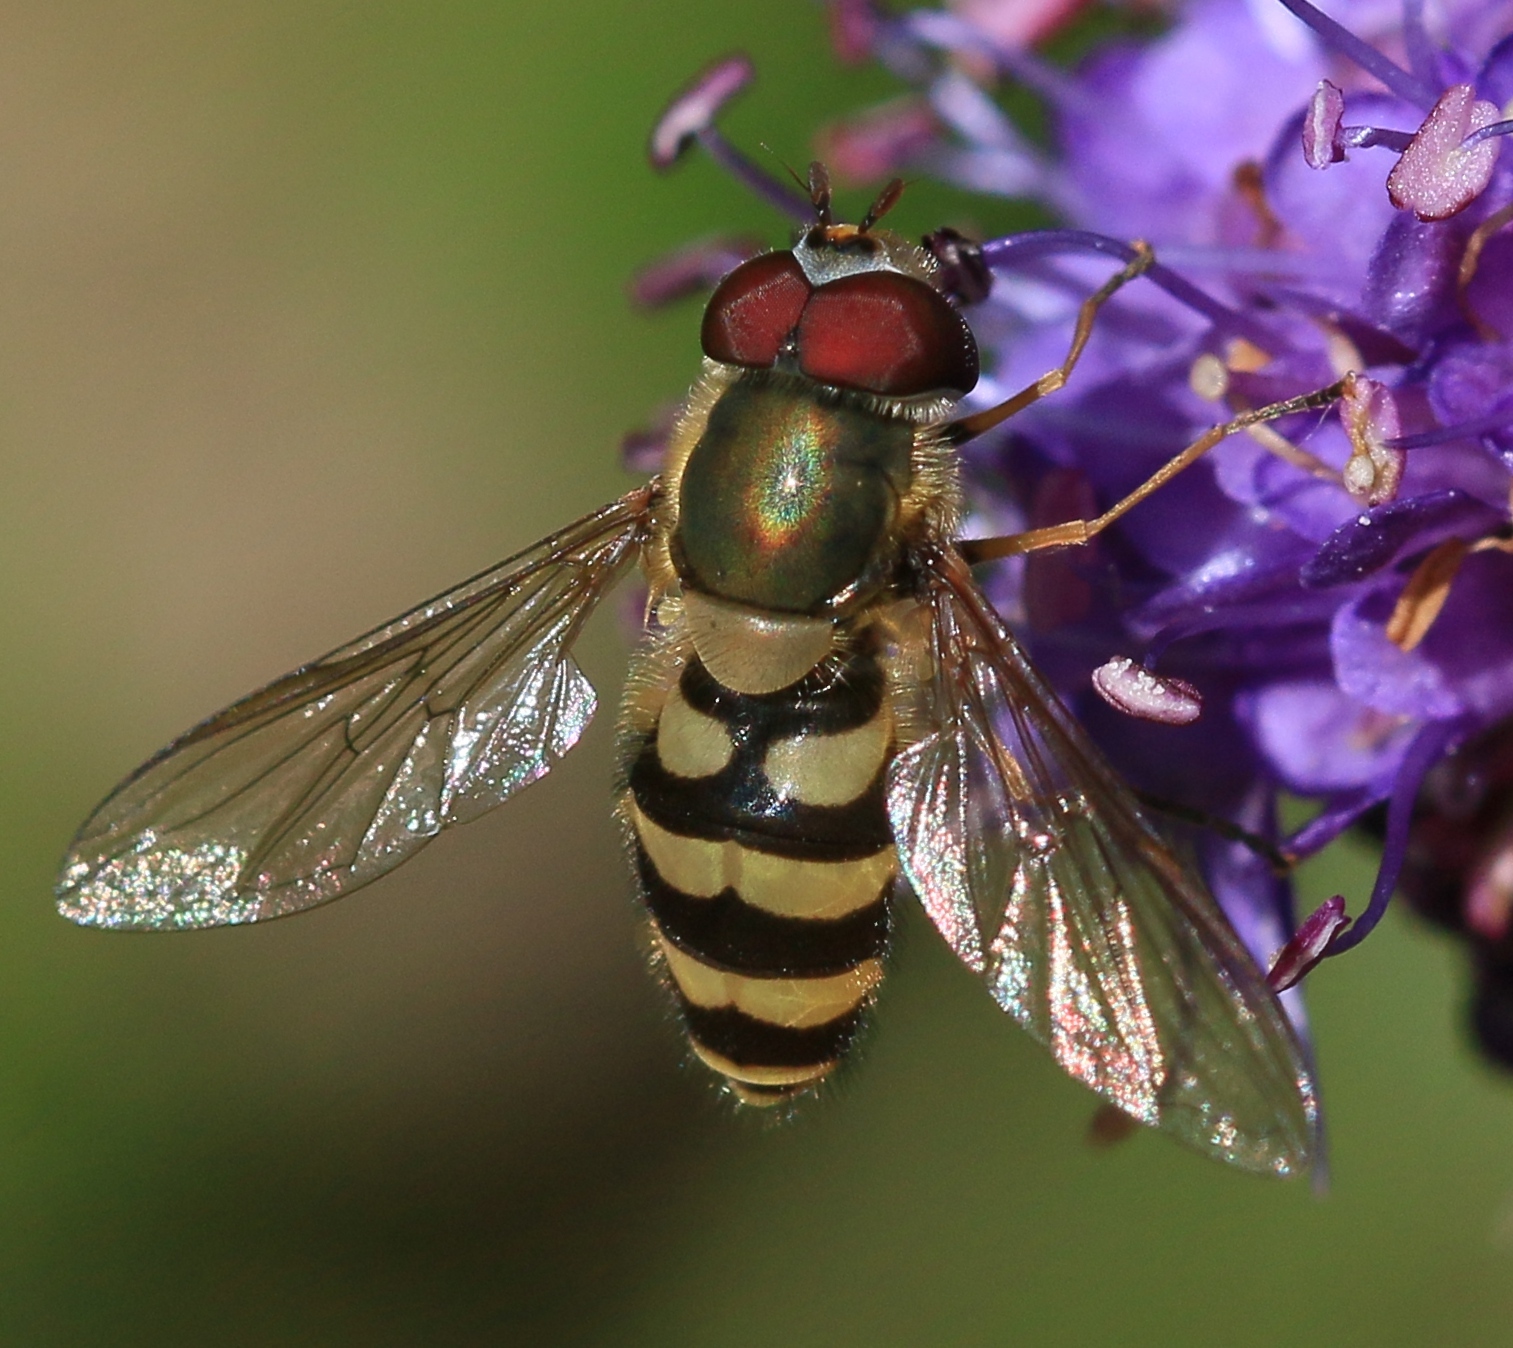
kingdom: Animalia
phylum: Arthropoda
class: Insecta
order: Diptera
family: Syrphidae
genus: Syrphus
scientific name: Syrphus torvus
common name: Hairy-eyed flower fly
